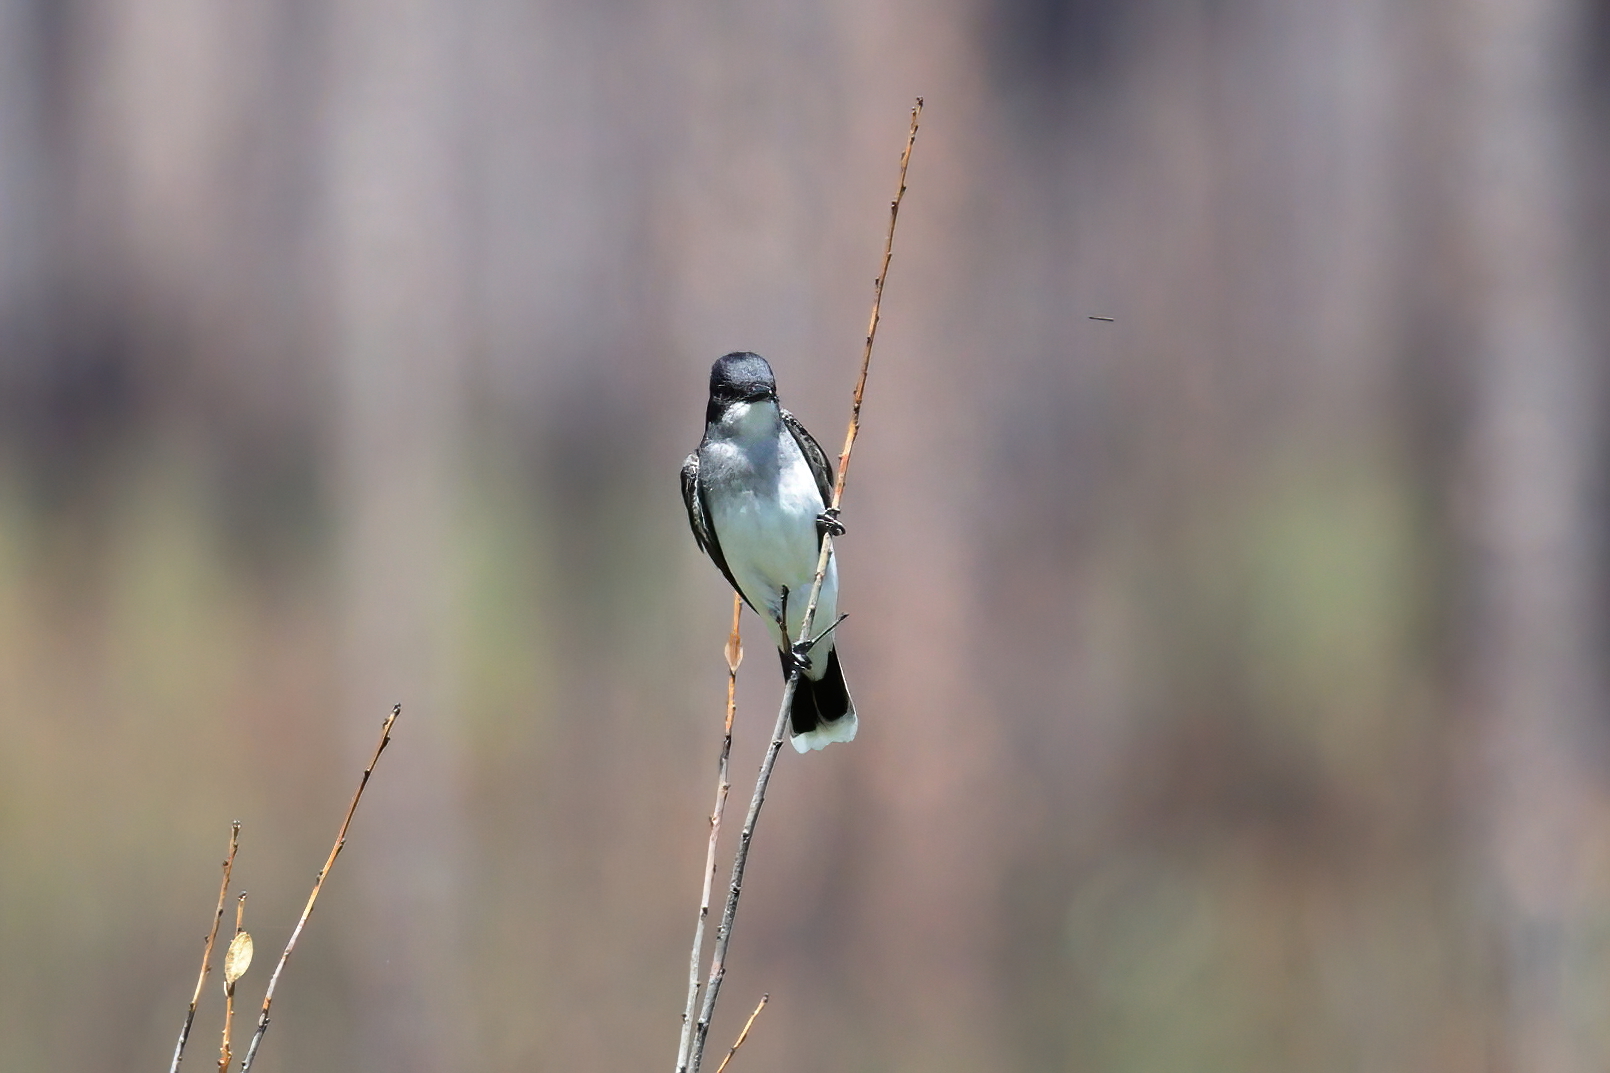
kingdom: Animalia
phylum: Chordata
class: Aves
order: Passeriformes
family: Tyrannidae
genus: Tyrannus
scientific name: Tyrannus tyrannus
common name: Eastern kingbird
